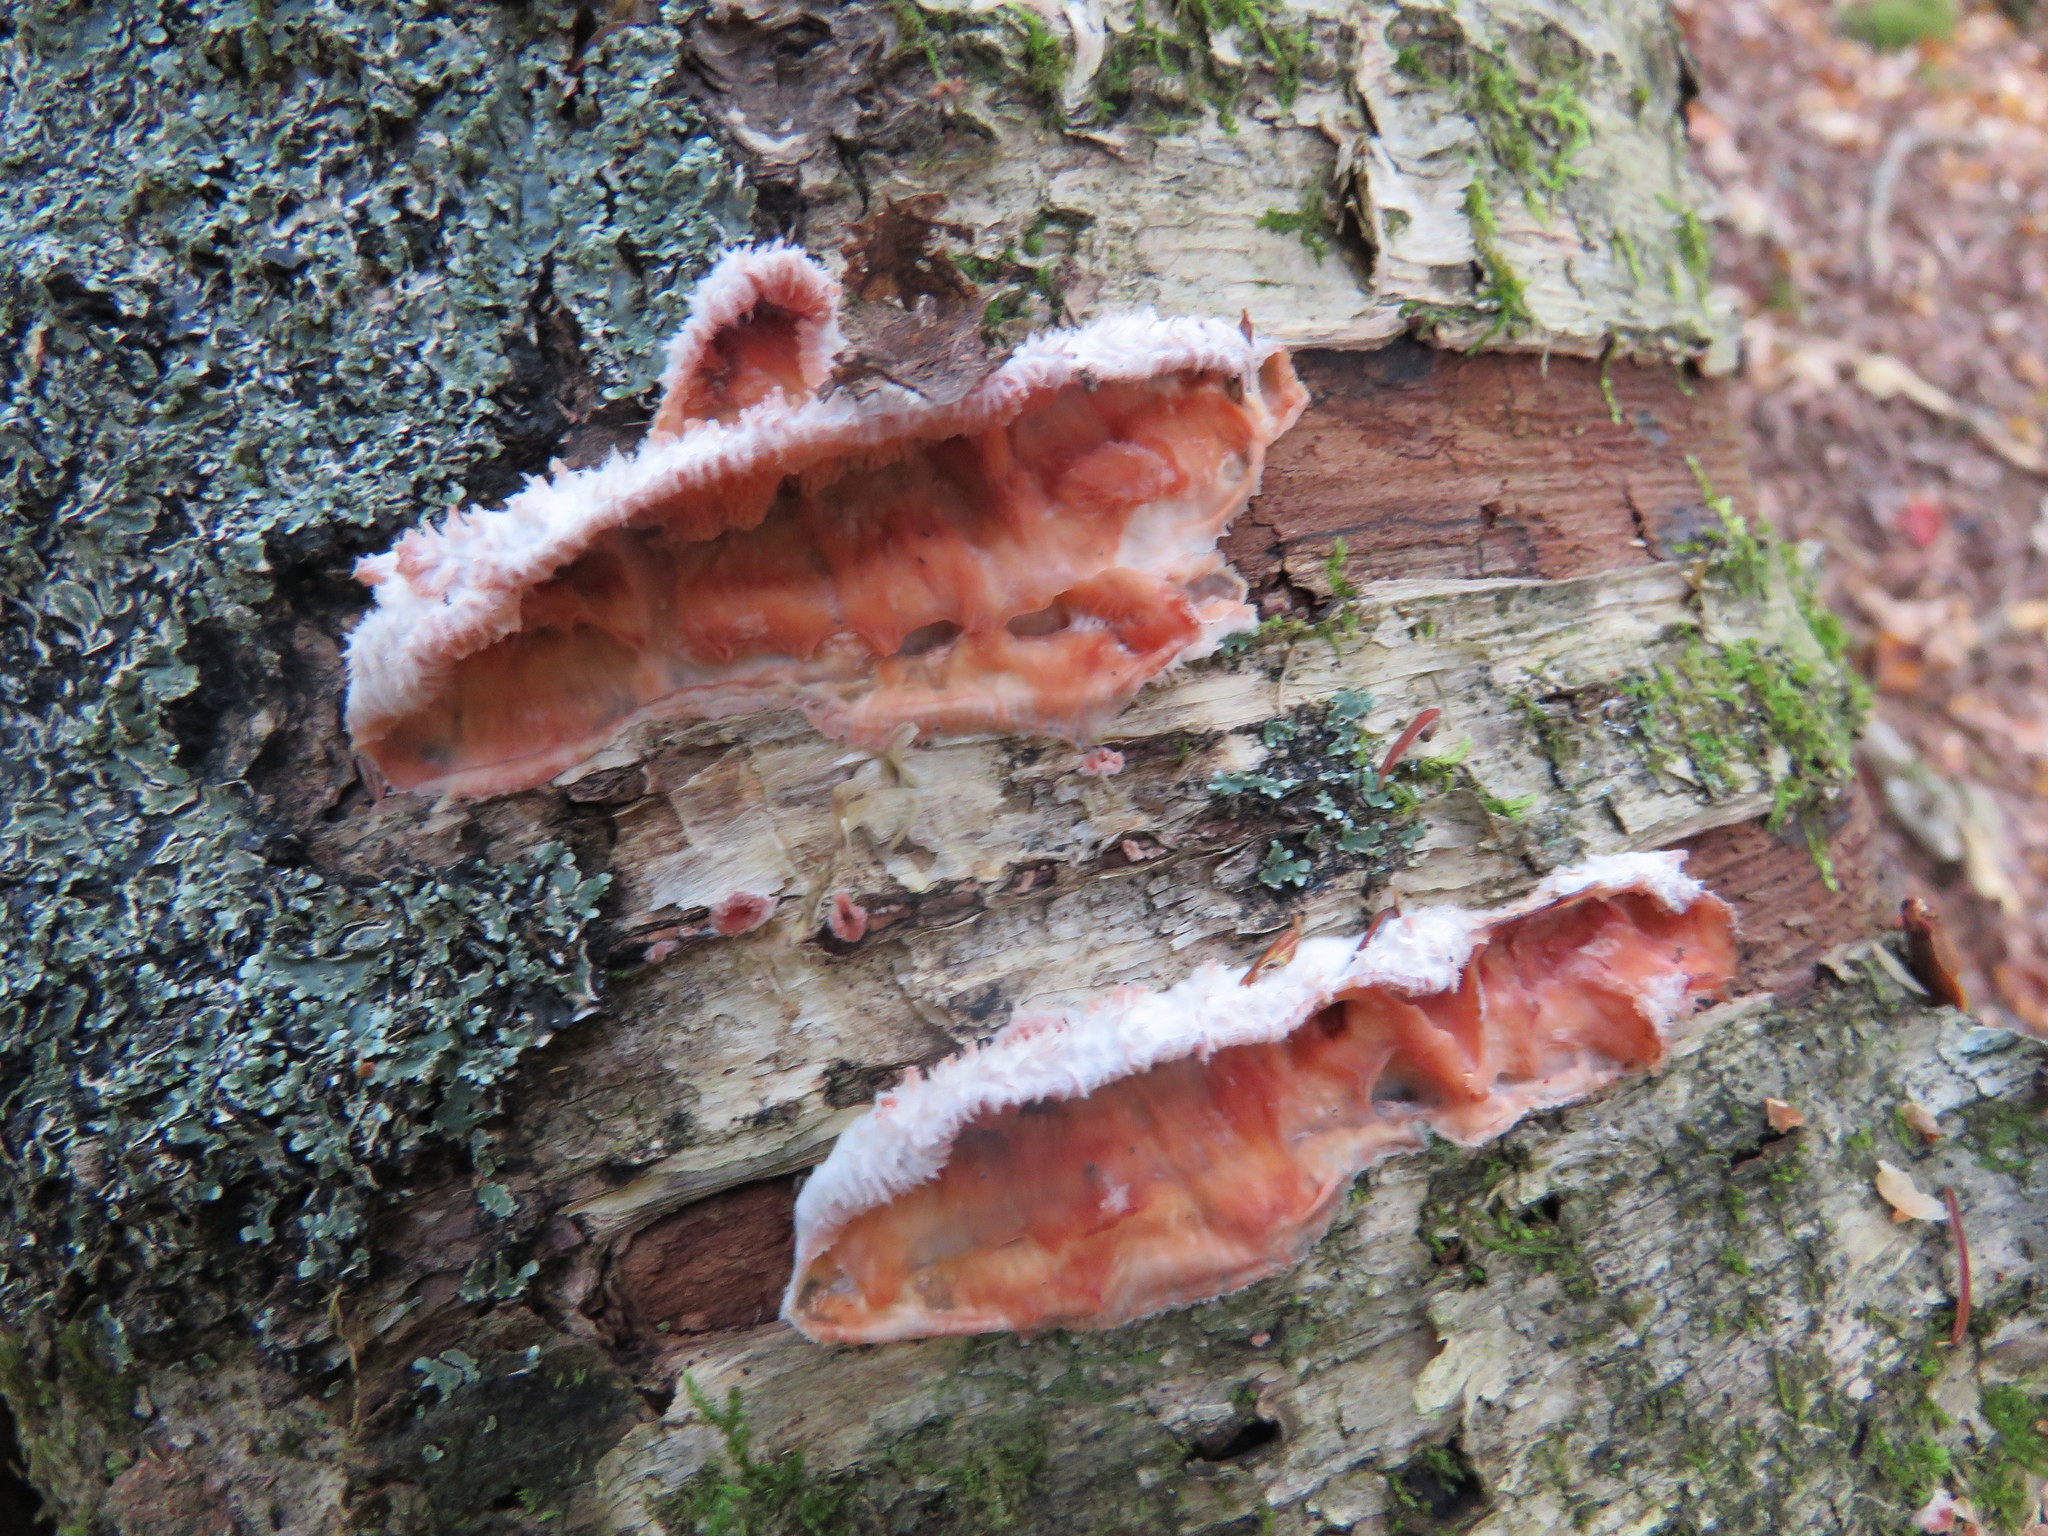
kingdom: Fungi
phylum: Basidiomycota
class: Agaricomycetes
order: Polyporales
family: Meruliaceae
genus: Phlebia
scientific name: Phlebia tremellosa
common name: Jelly rot
